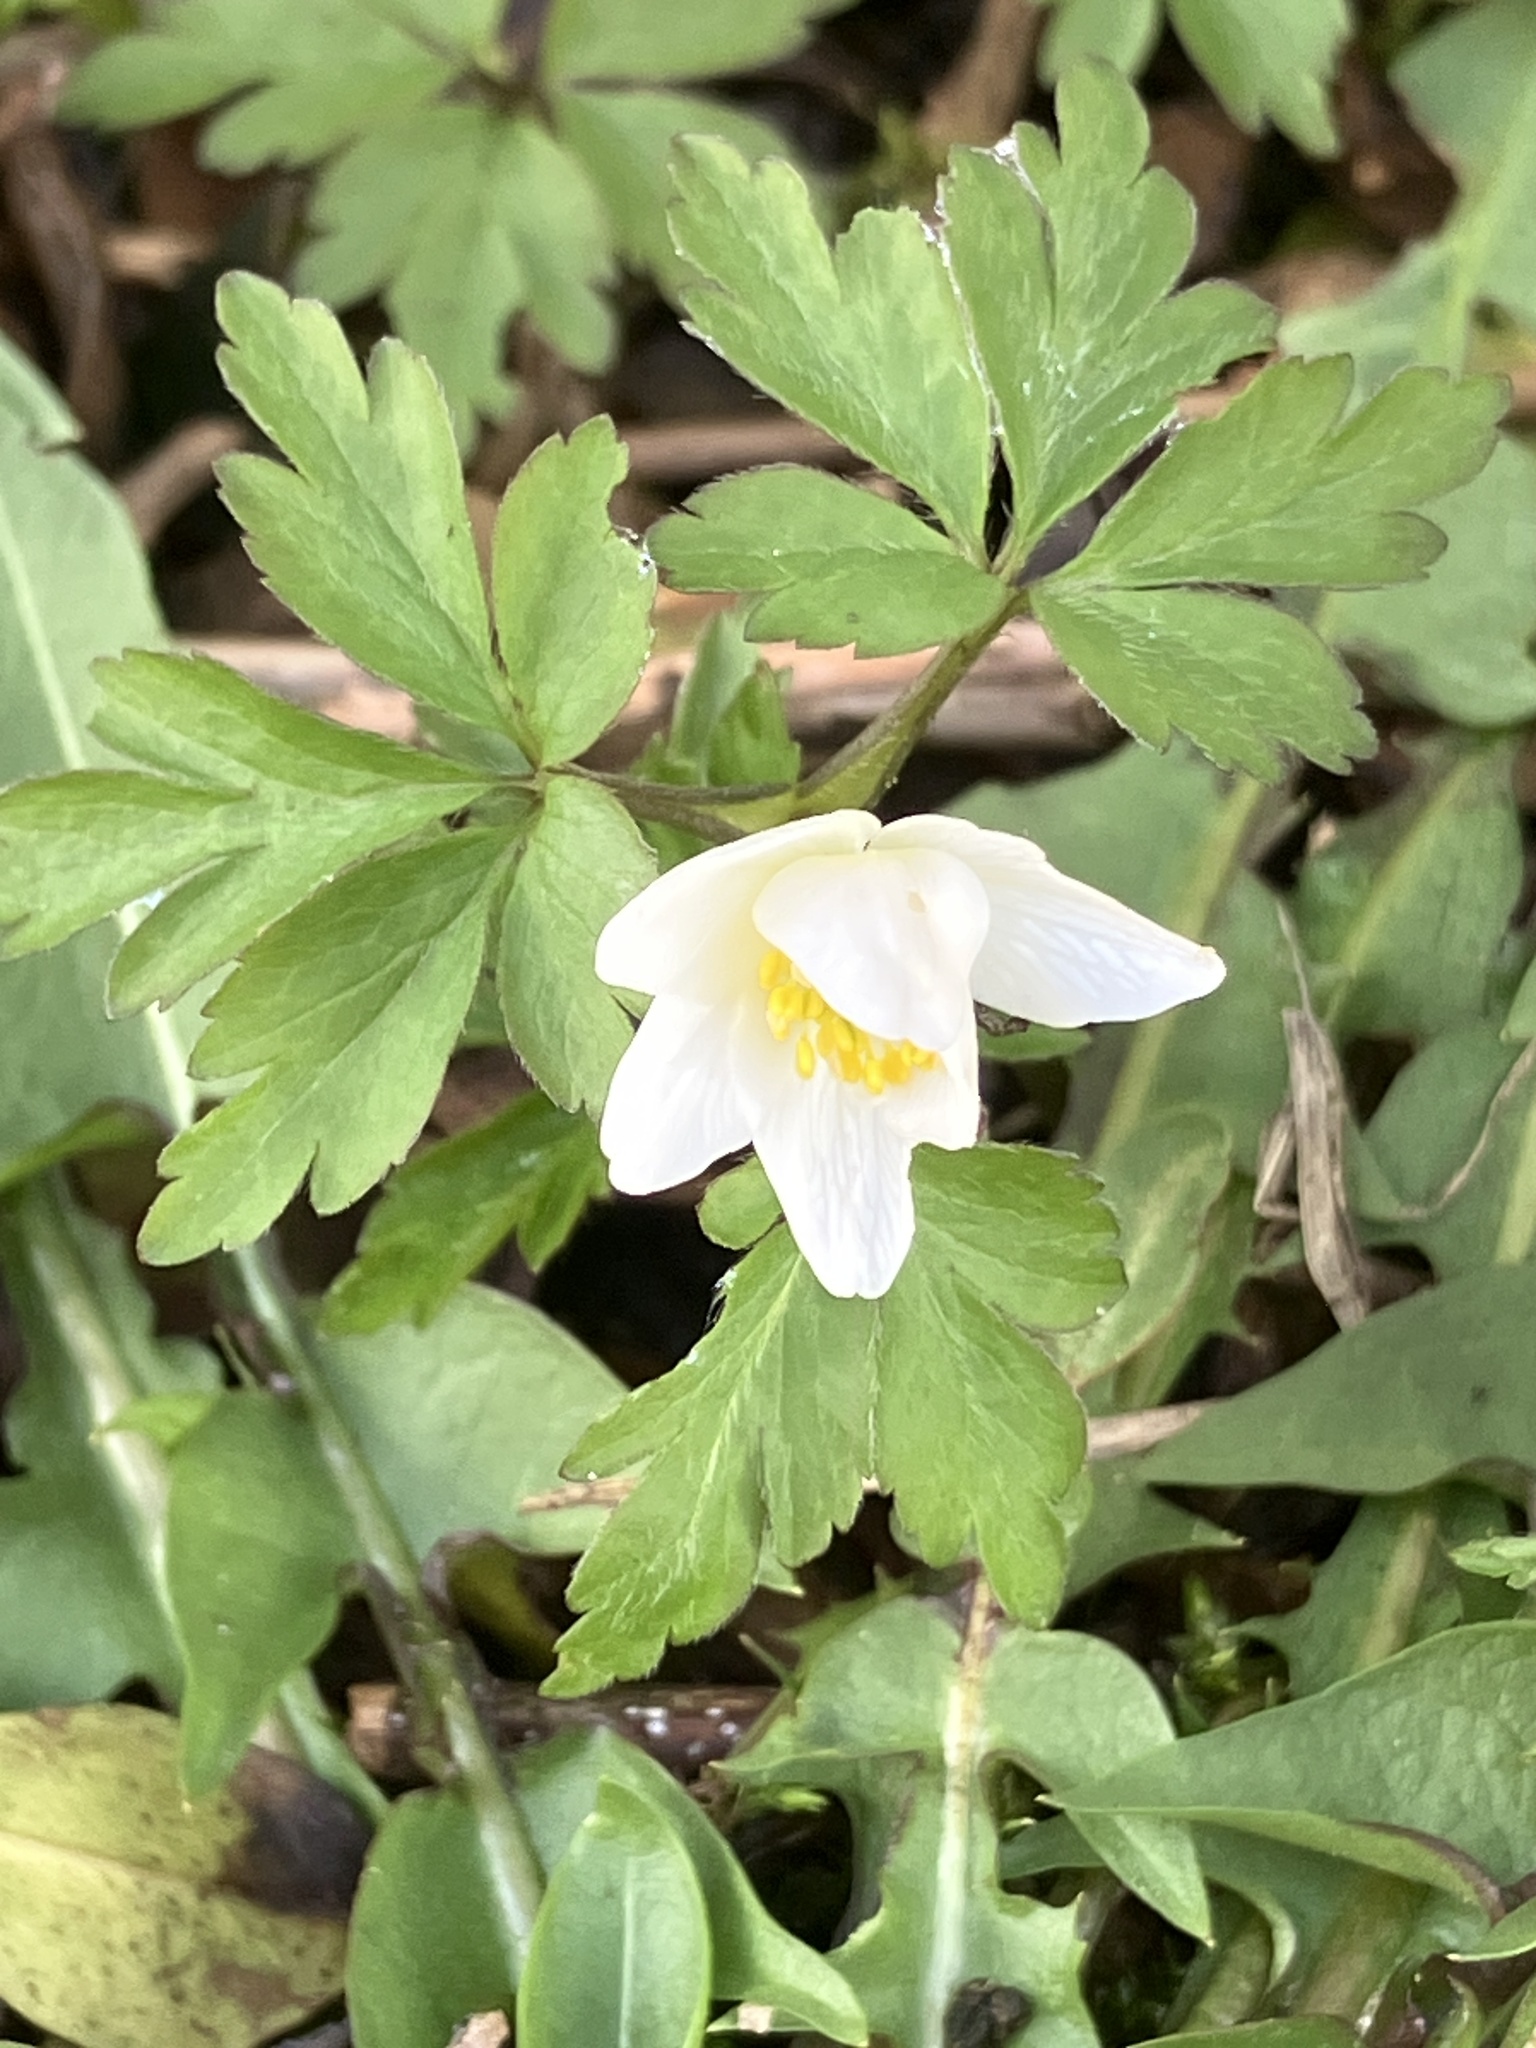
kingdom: Plantae
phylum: Tracheophyta
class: Magnoliopsida
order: Ranunculales
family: Ranunculaceae
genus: Anemone
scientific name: Anemone nemorosa
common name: Wood anemone
